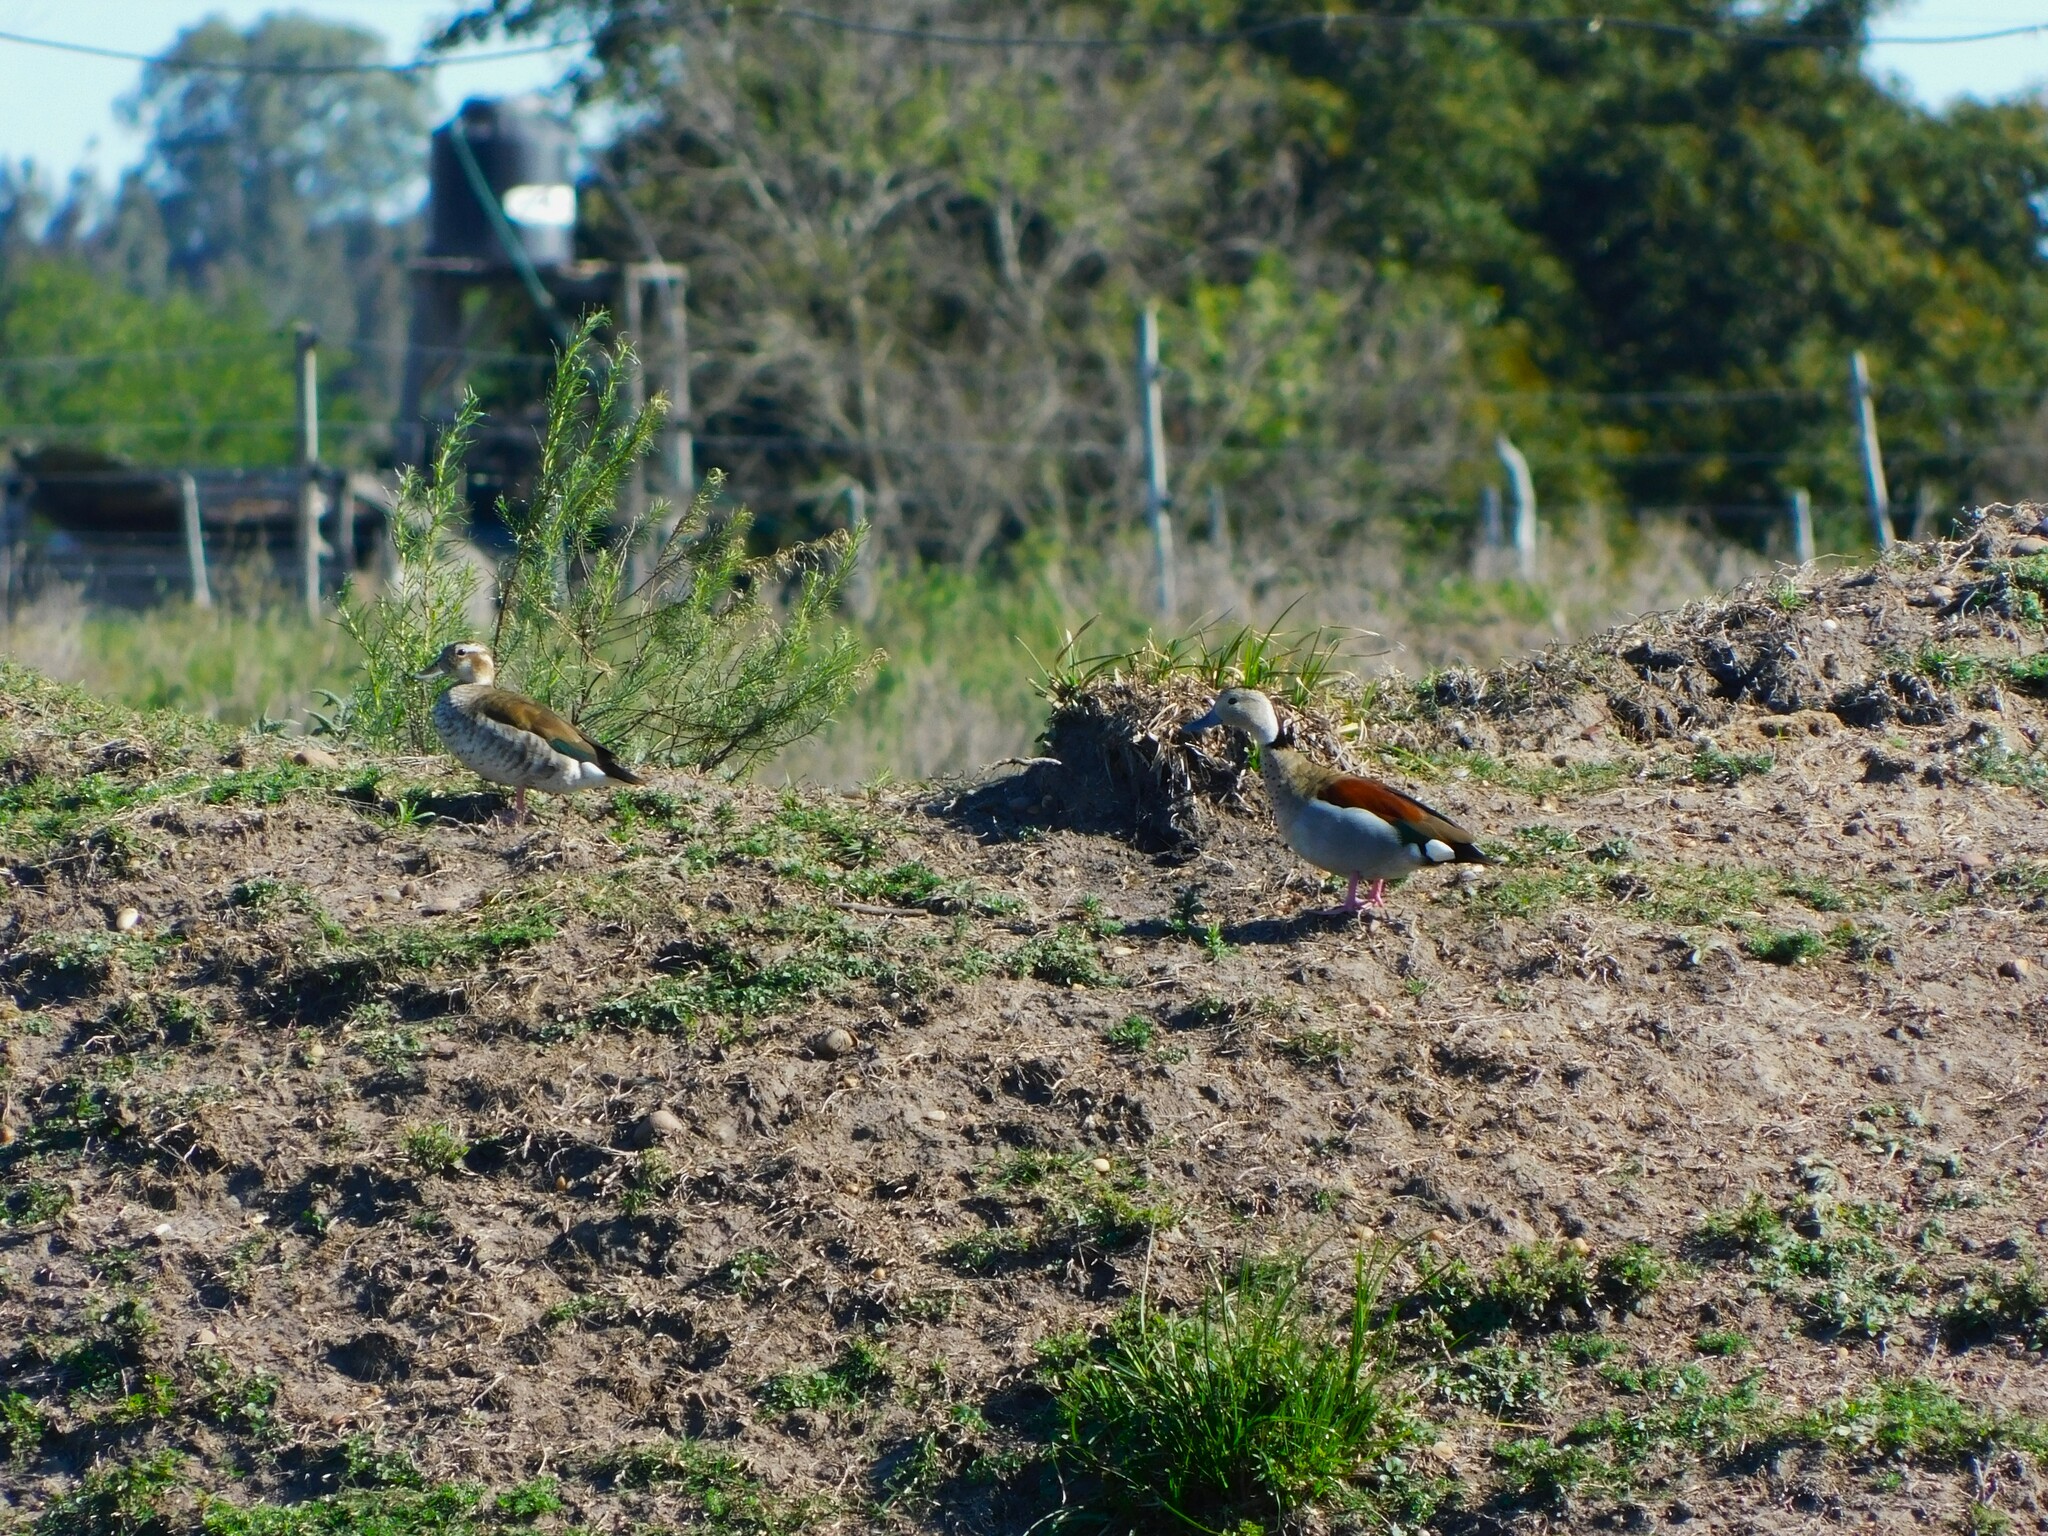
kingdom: Animalia
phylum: Chordata
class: Aves
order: Anseriformes
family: Anatidae
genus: Callonetta
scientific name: Callonetta leucophrys
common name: Ringed teal
